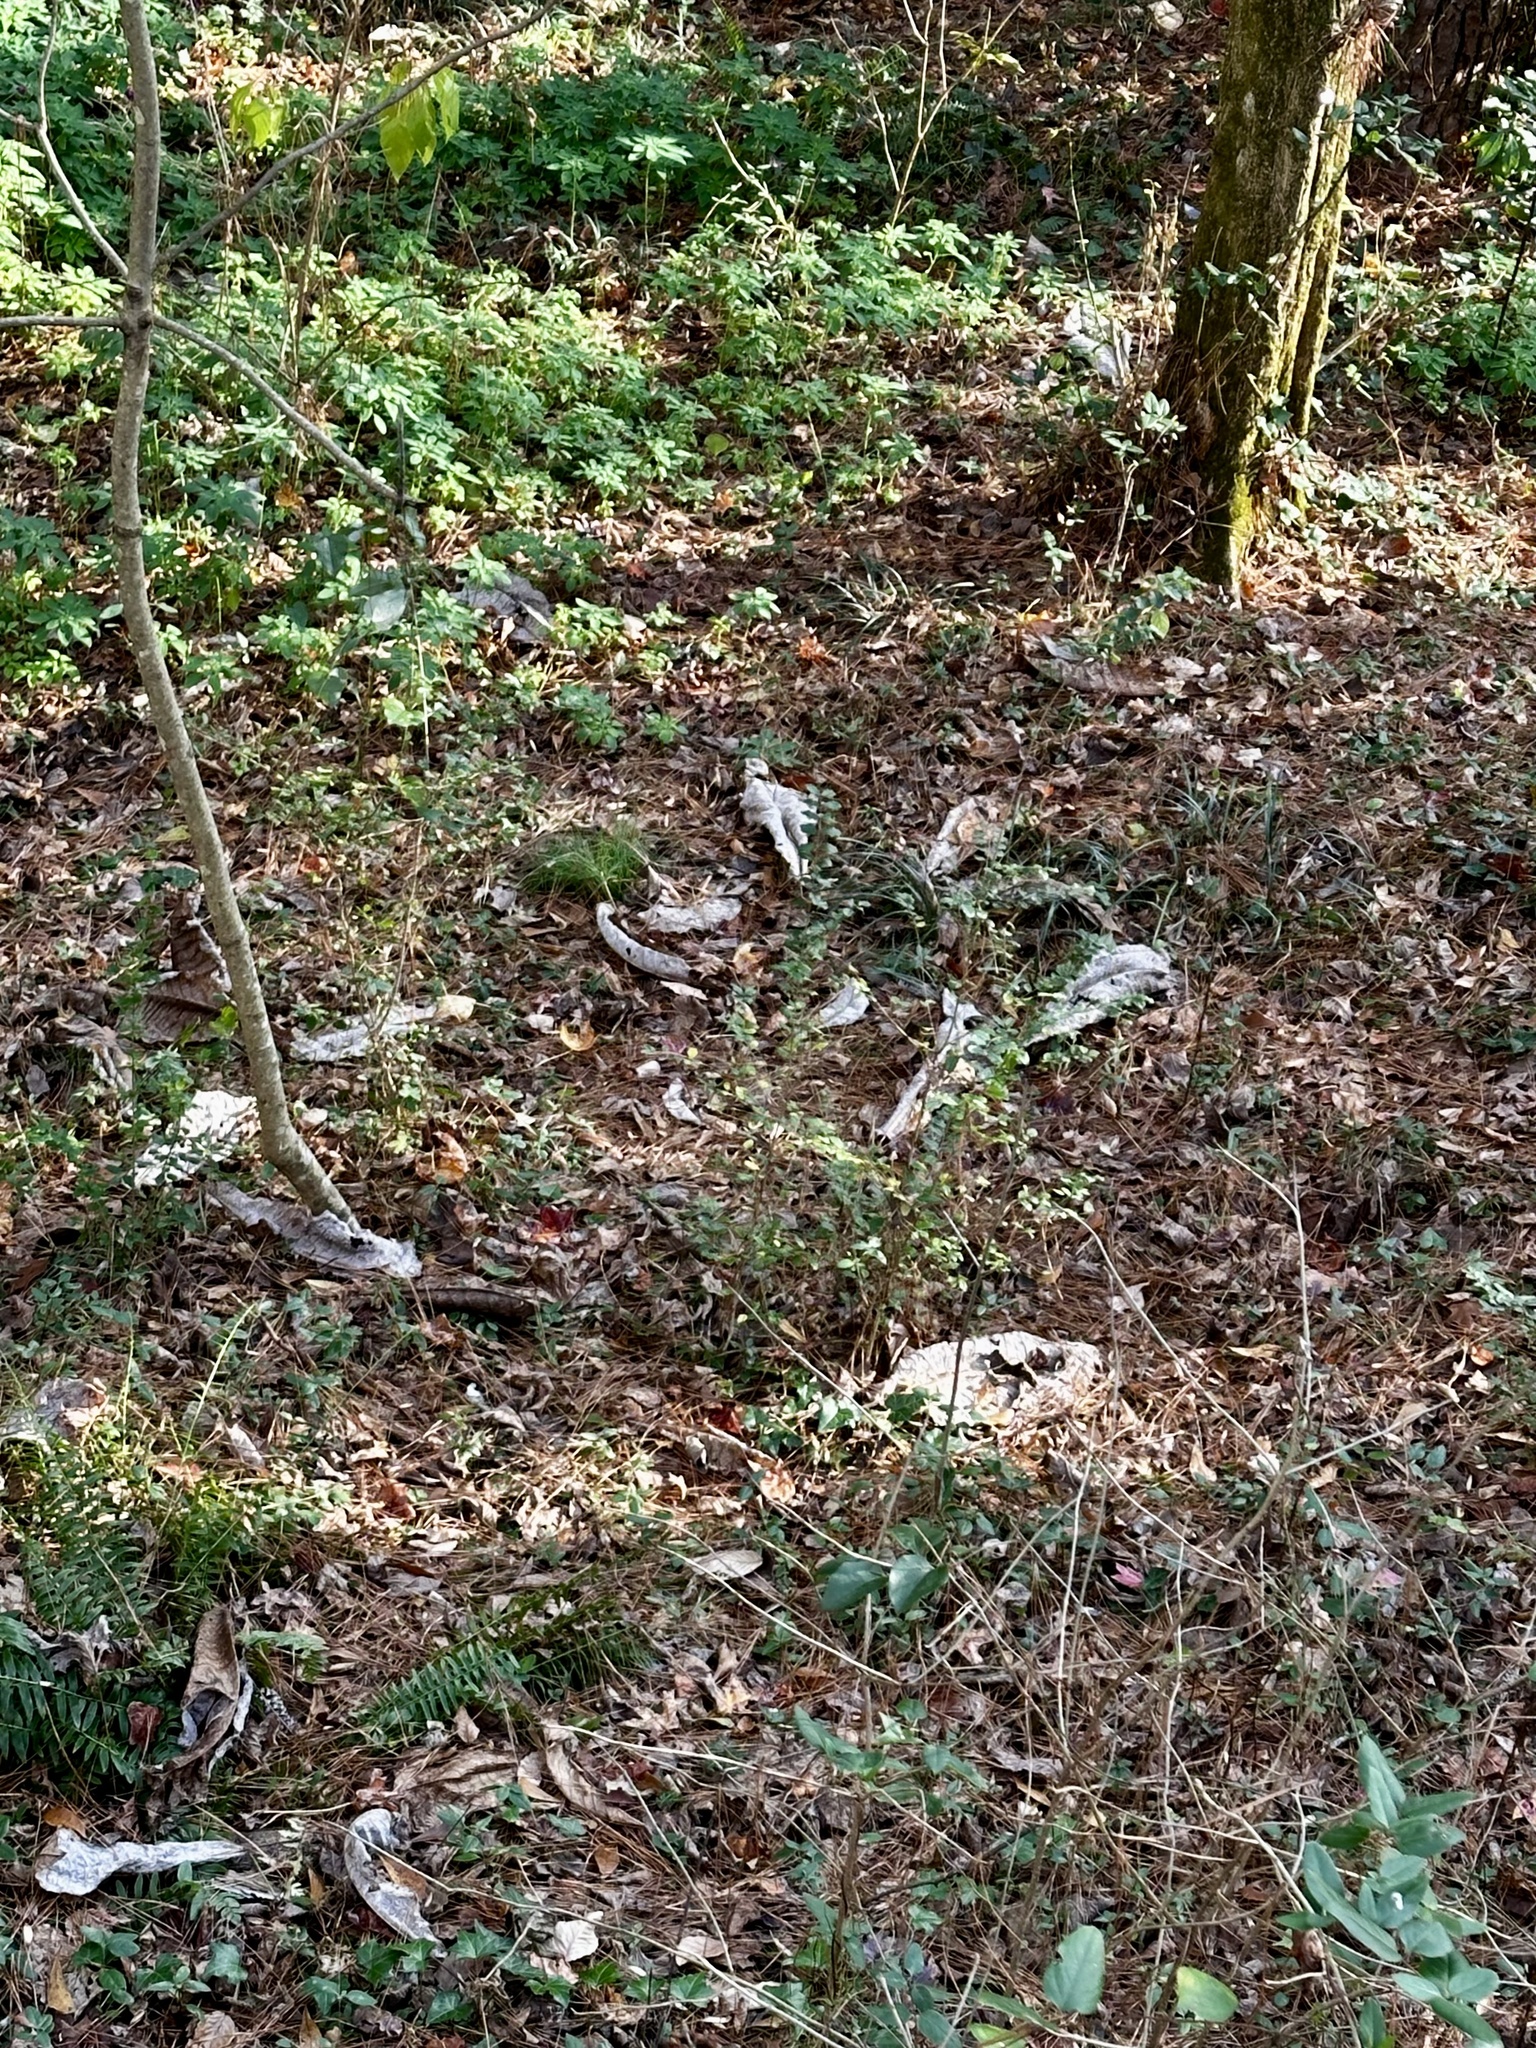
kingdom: Plantae
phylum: Tracheophyta
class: Magnoliopsida
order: Magnoliales
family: Magnoliaceae
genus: Magnolia
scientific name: Magnolia macrophylla
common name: Big-leaf magnolia
